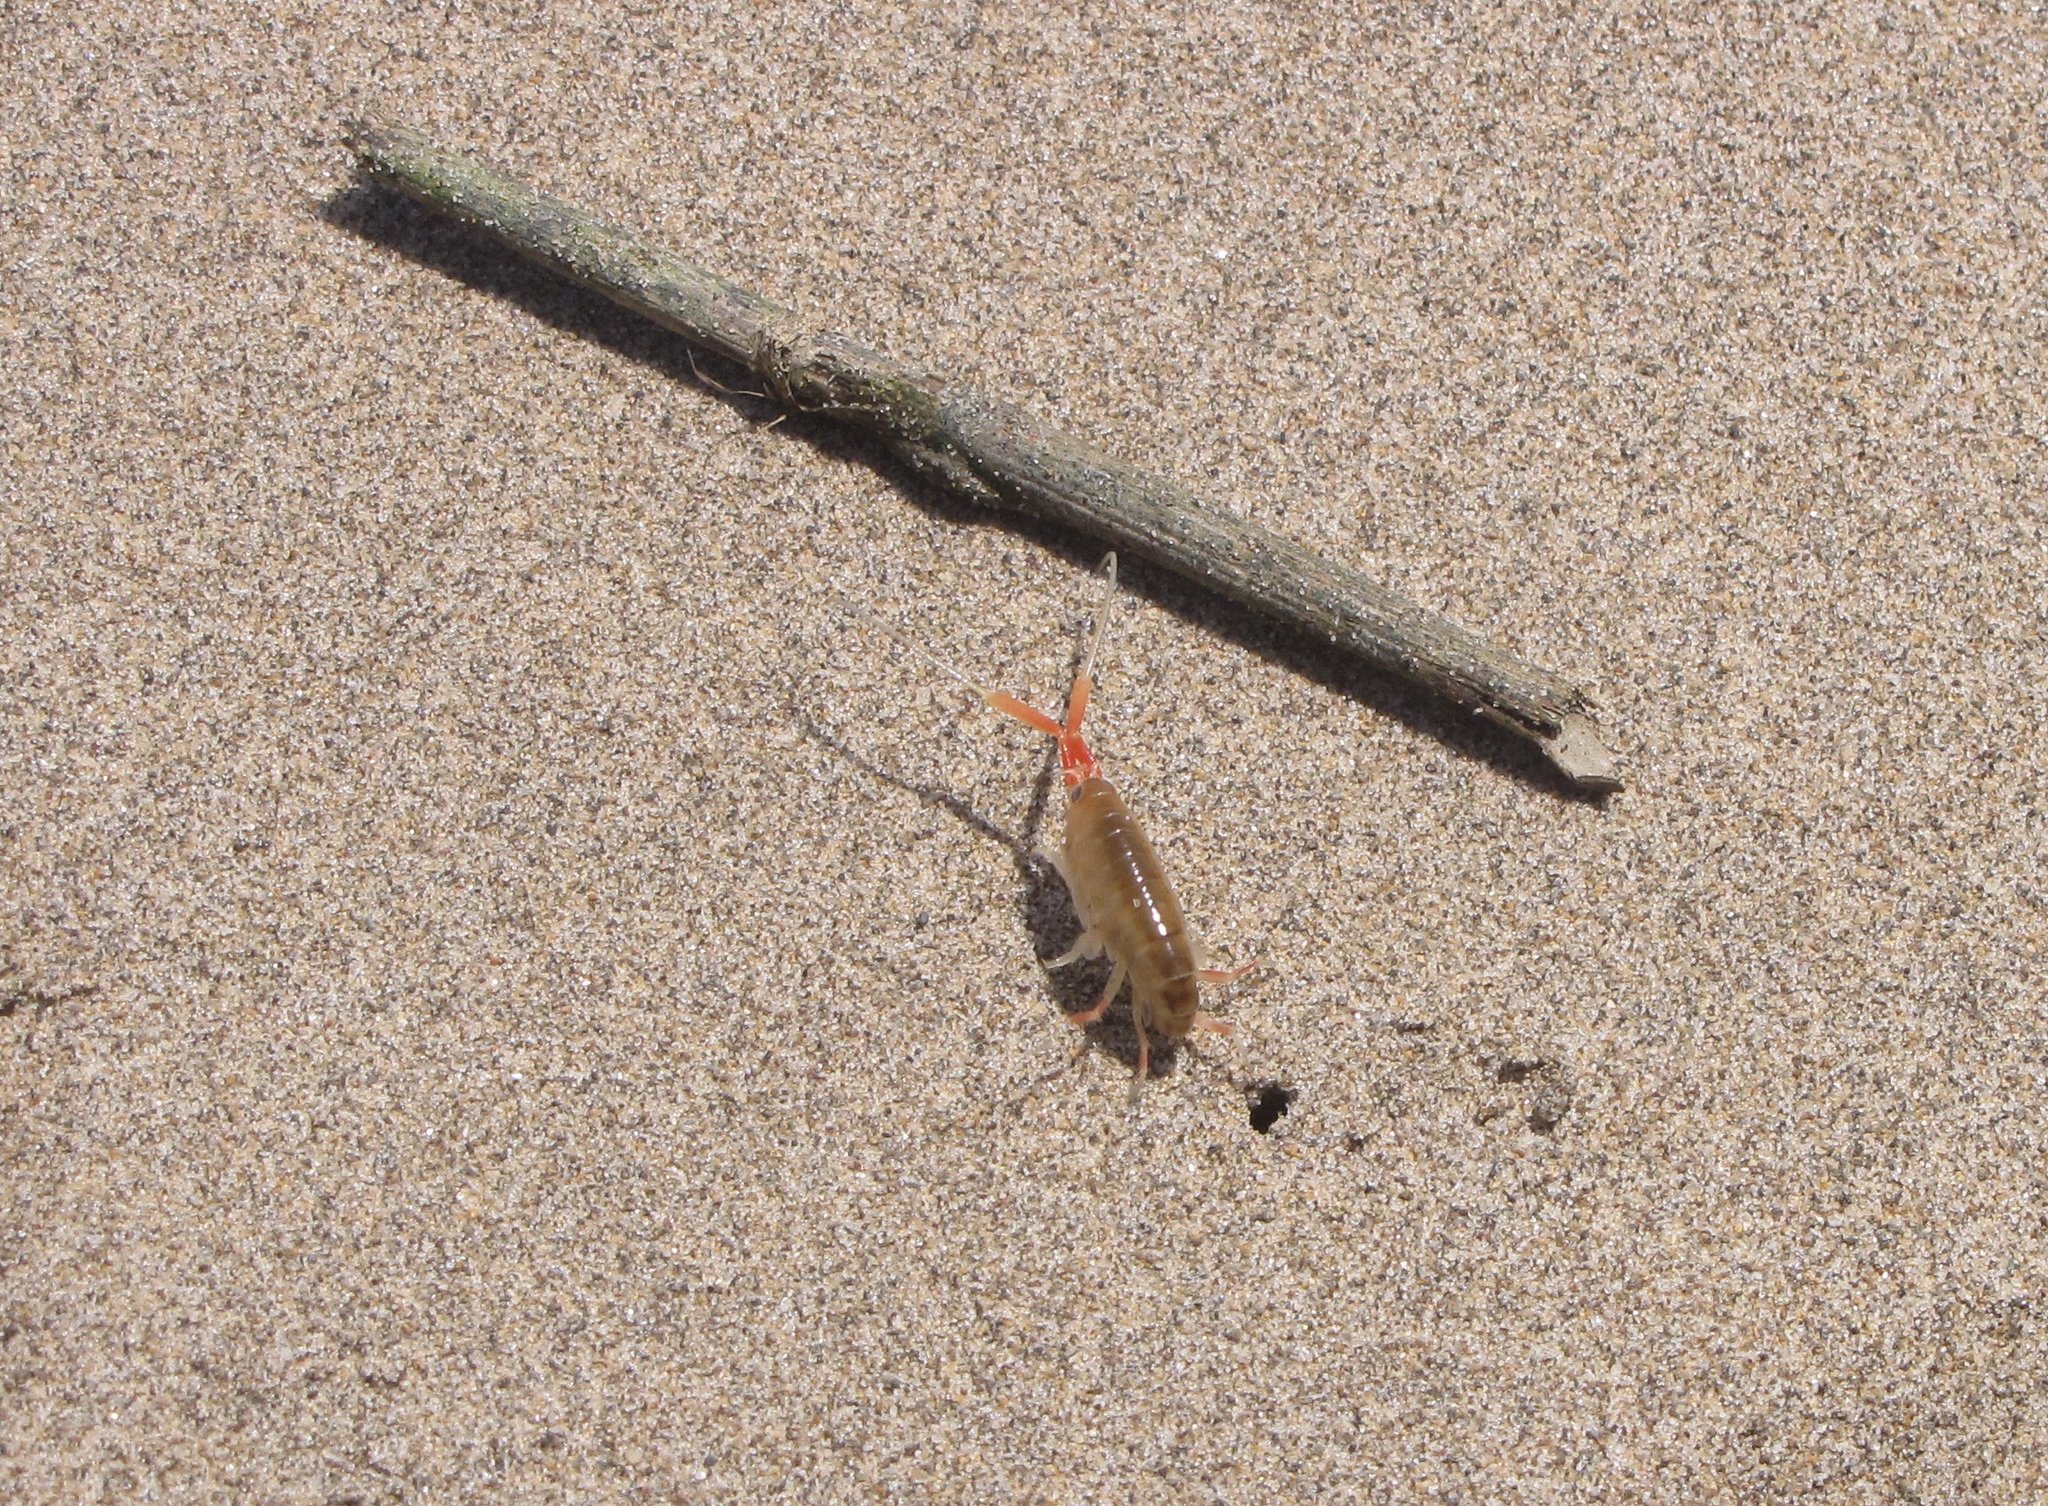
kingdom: Animalia
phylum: Arthropoda
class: Malacostraca
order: Amphipoda
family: Talitridae
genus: Megalorchestia
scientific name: Megalorchestia californiana
